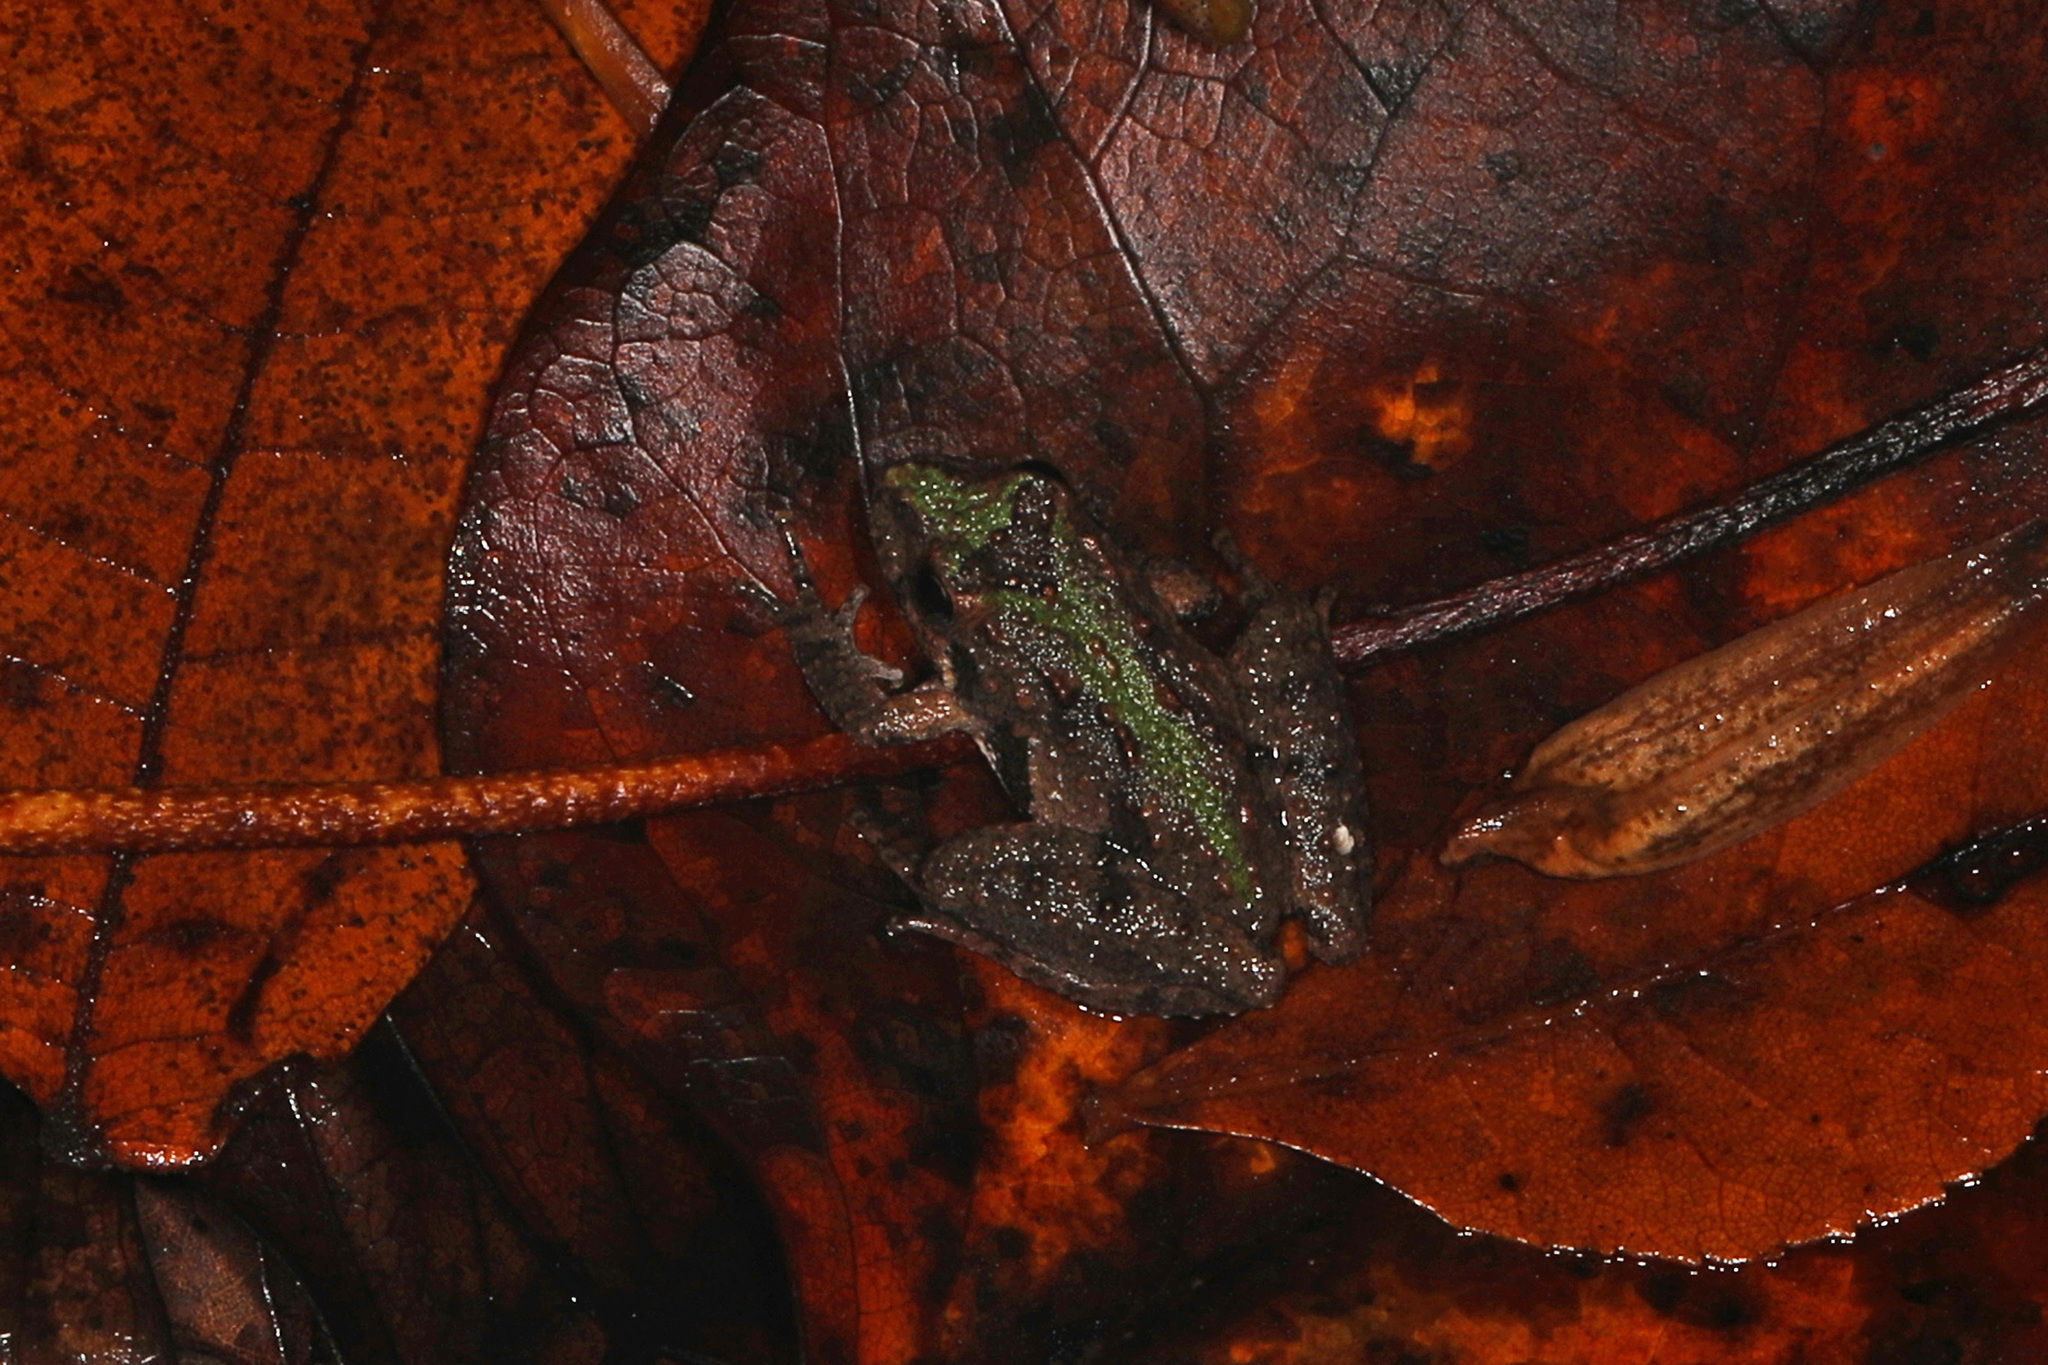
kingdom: Animalia
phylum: Chordata
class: Amphibia
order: Anura
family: Hylidae
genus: Acris
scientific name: Acris crepitans
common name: Northern cricket frog
